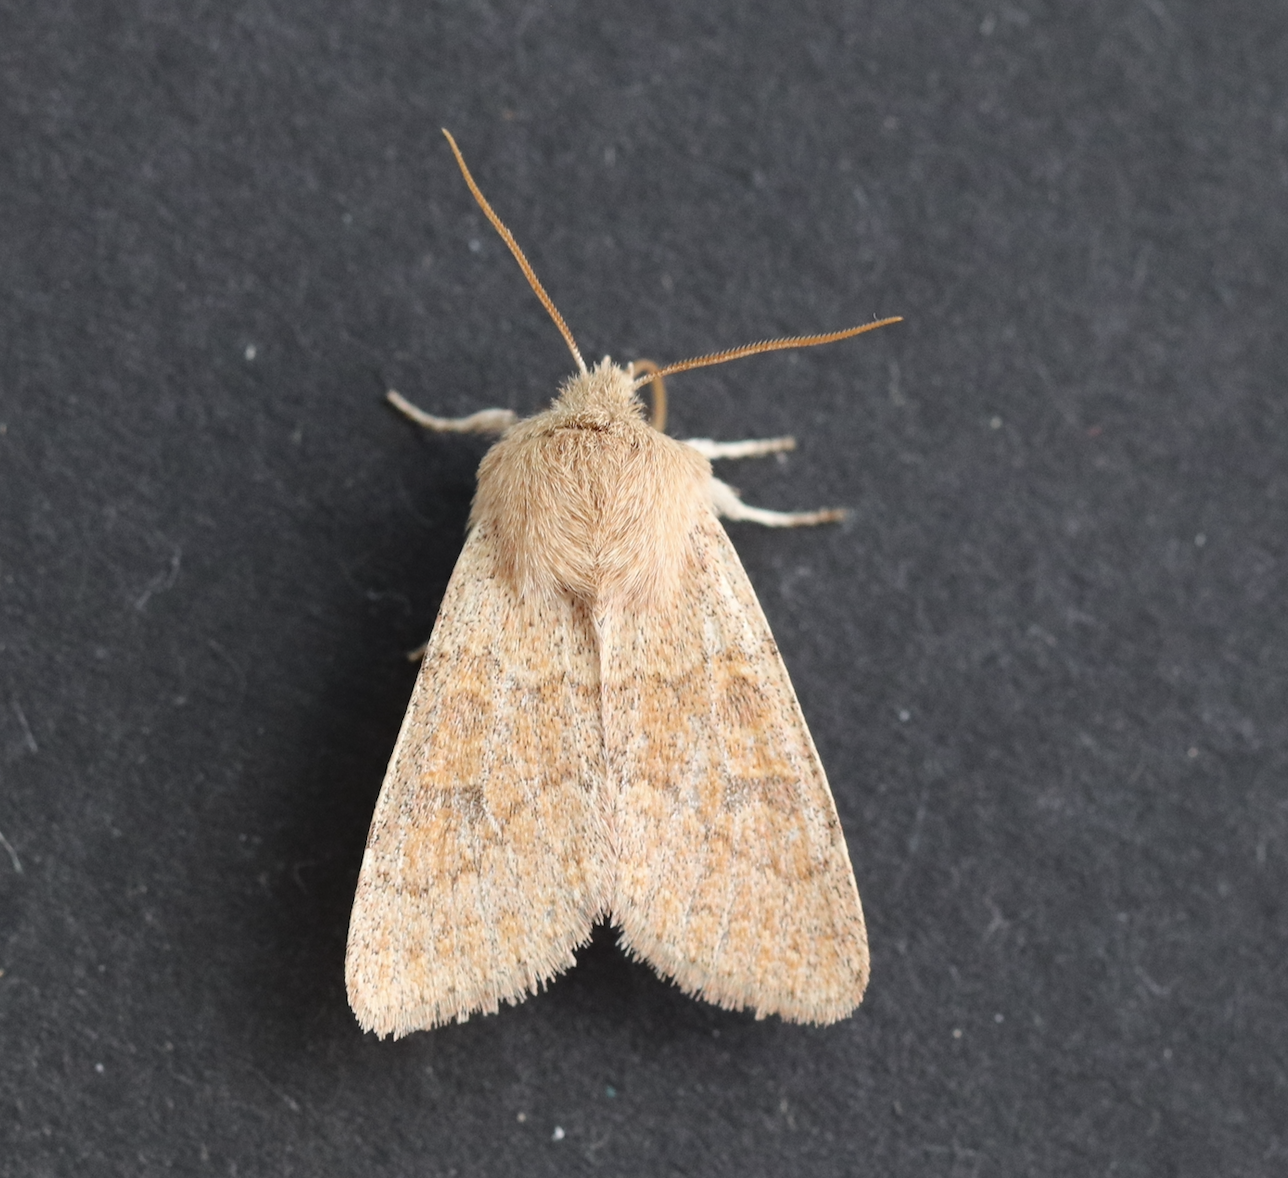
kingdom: Animalia
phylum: Arthropoda
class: Insecta
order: Lepidoptera
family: Noctuidae
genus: Orthosia
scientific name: Orthosia miniosa
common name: Blossom underwing
